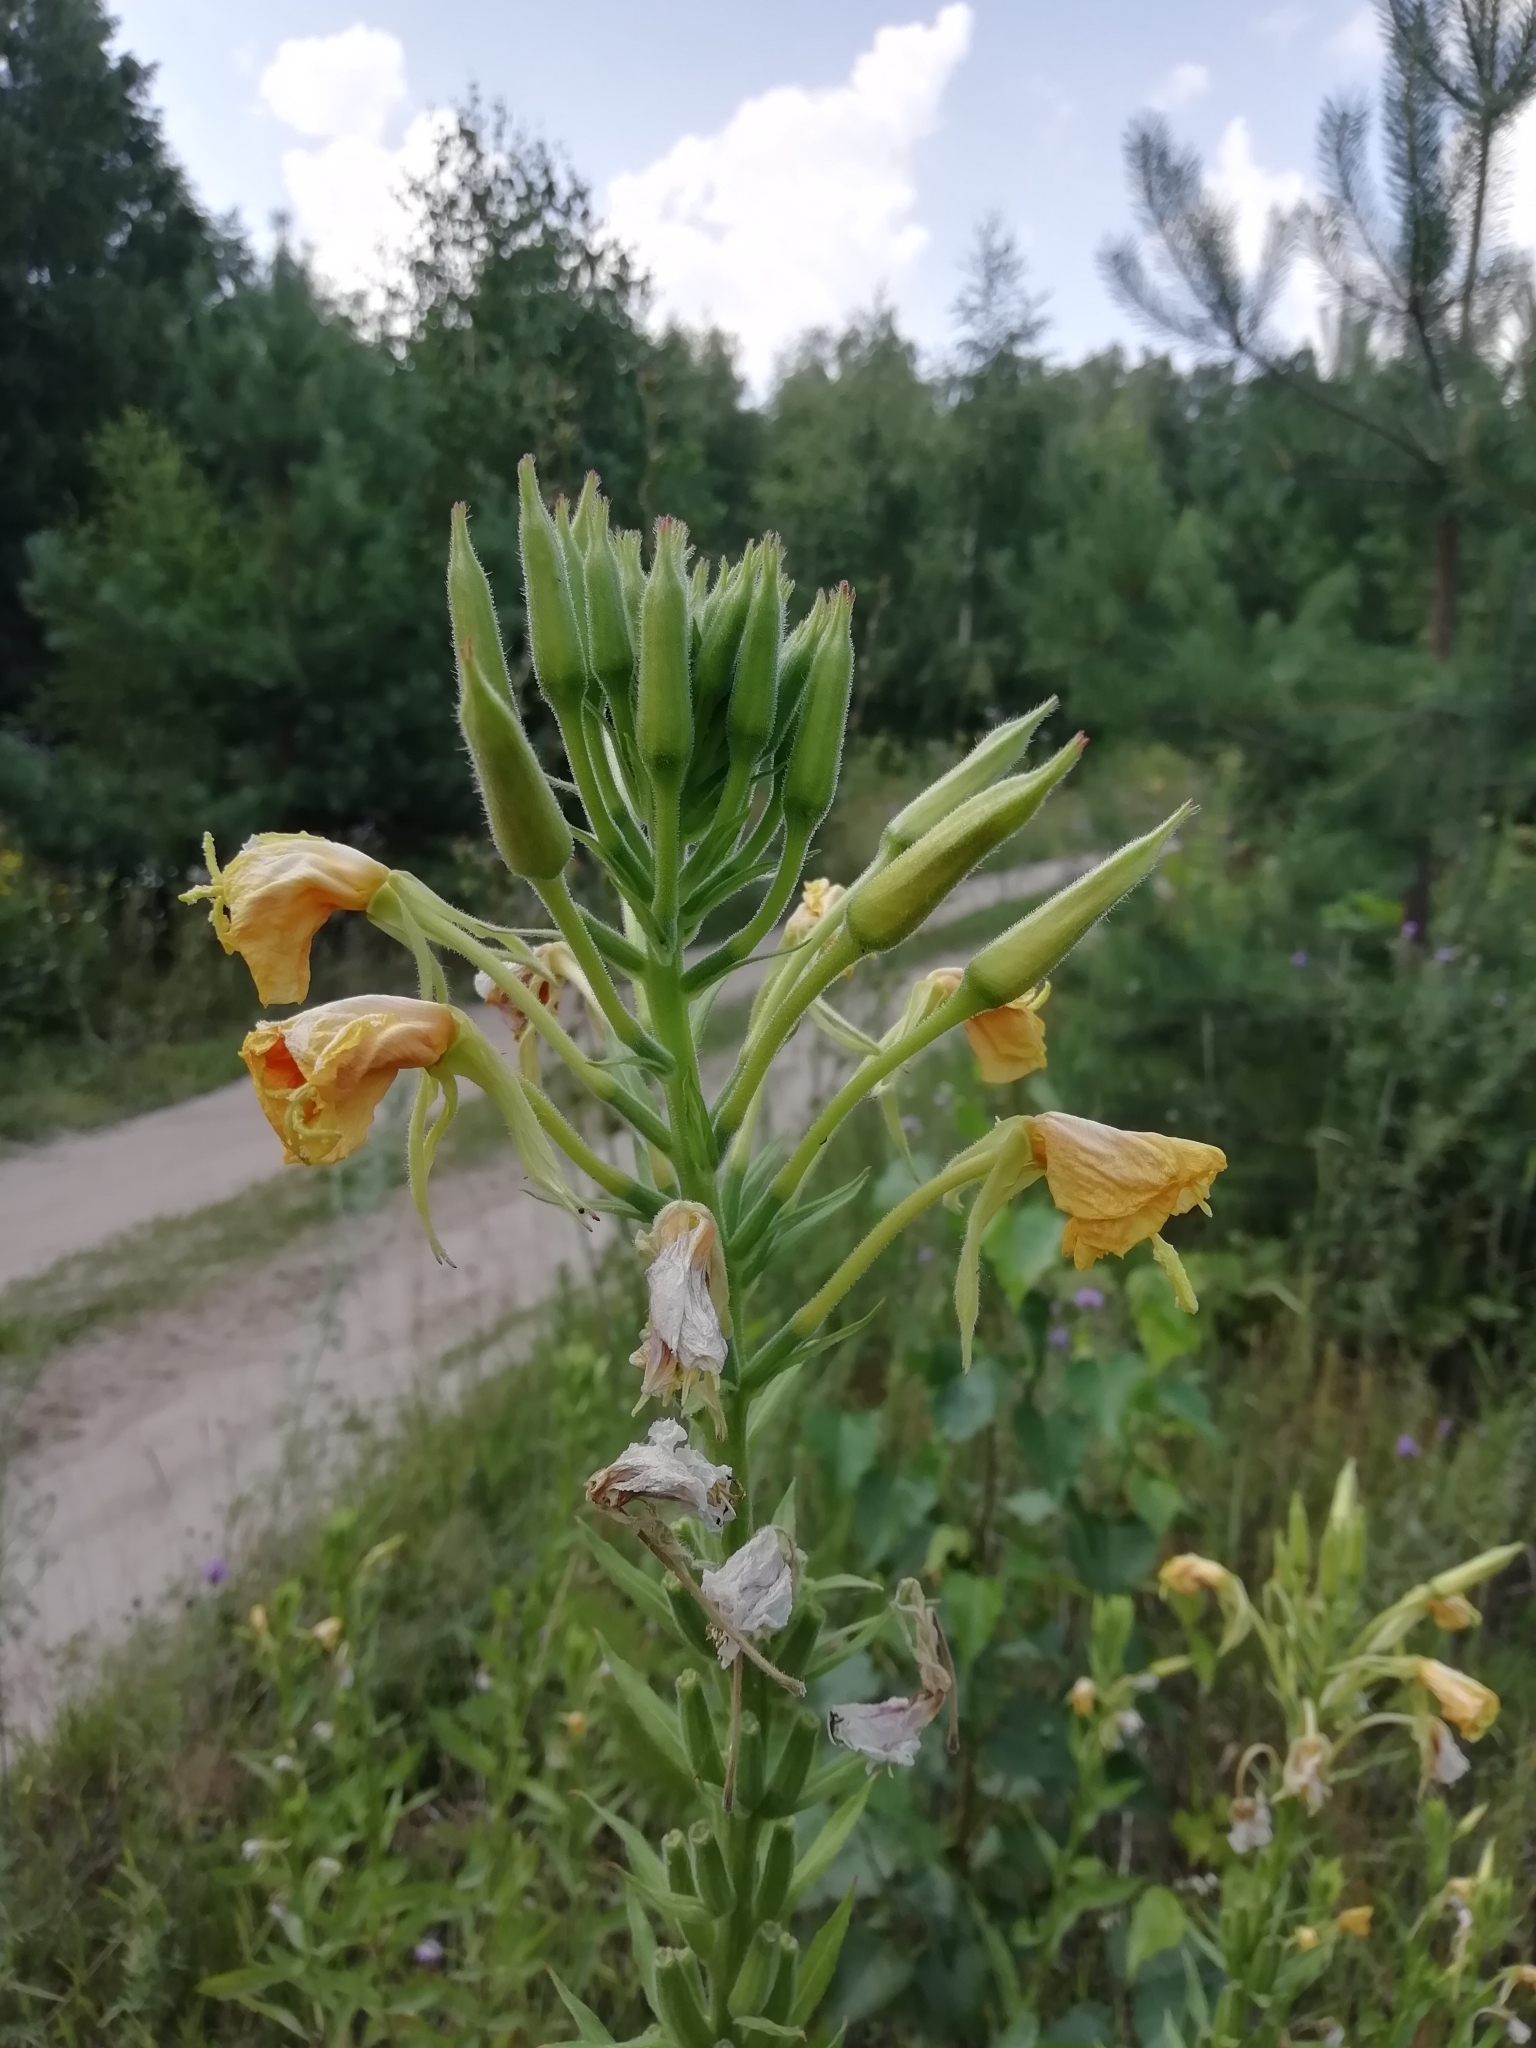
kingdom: Plantae
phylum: Tracheophyta
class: Magnoliopsida
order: Myrtales
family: Onagraceae
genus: Oenothera
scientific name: Oenothera biennis
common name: Common evening-primrose
